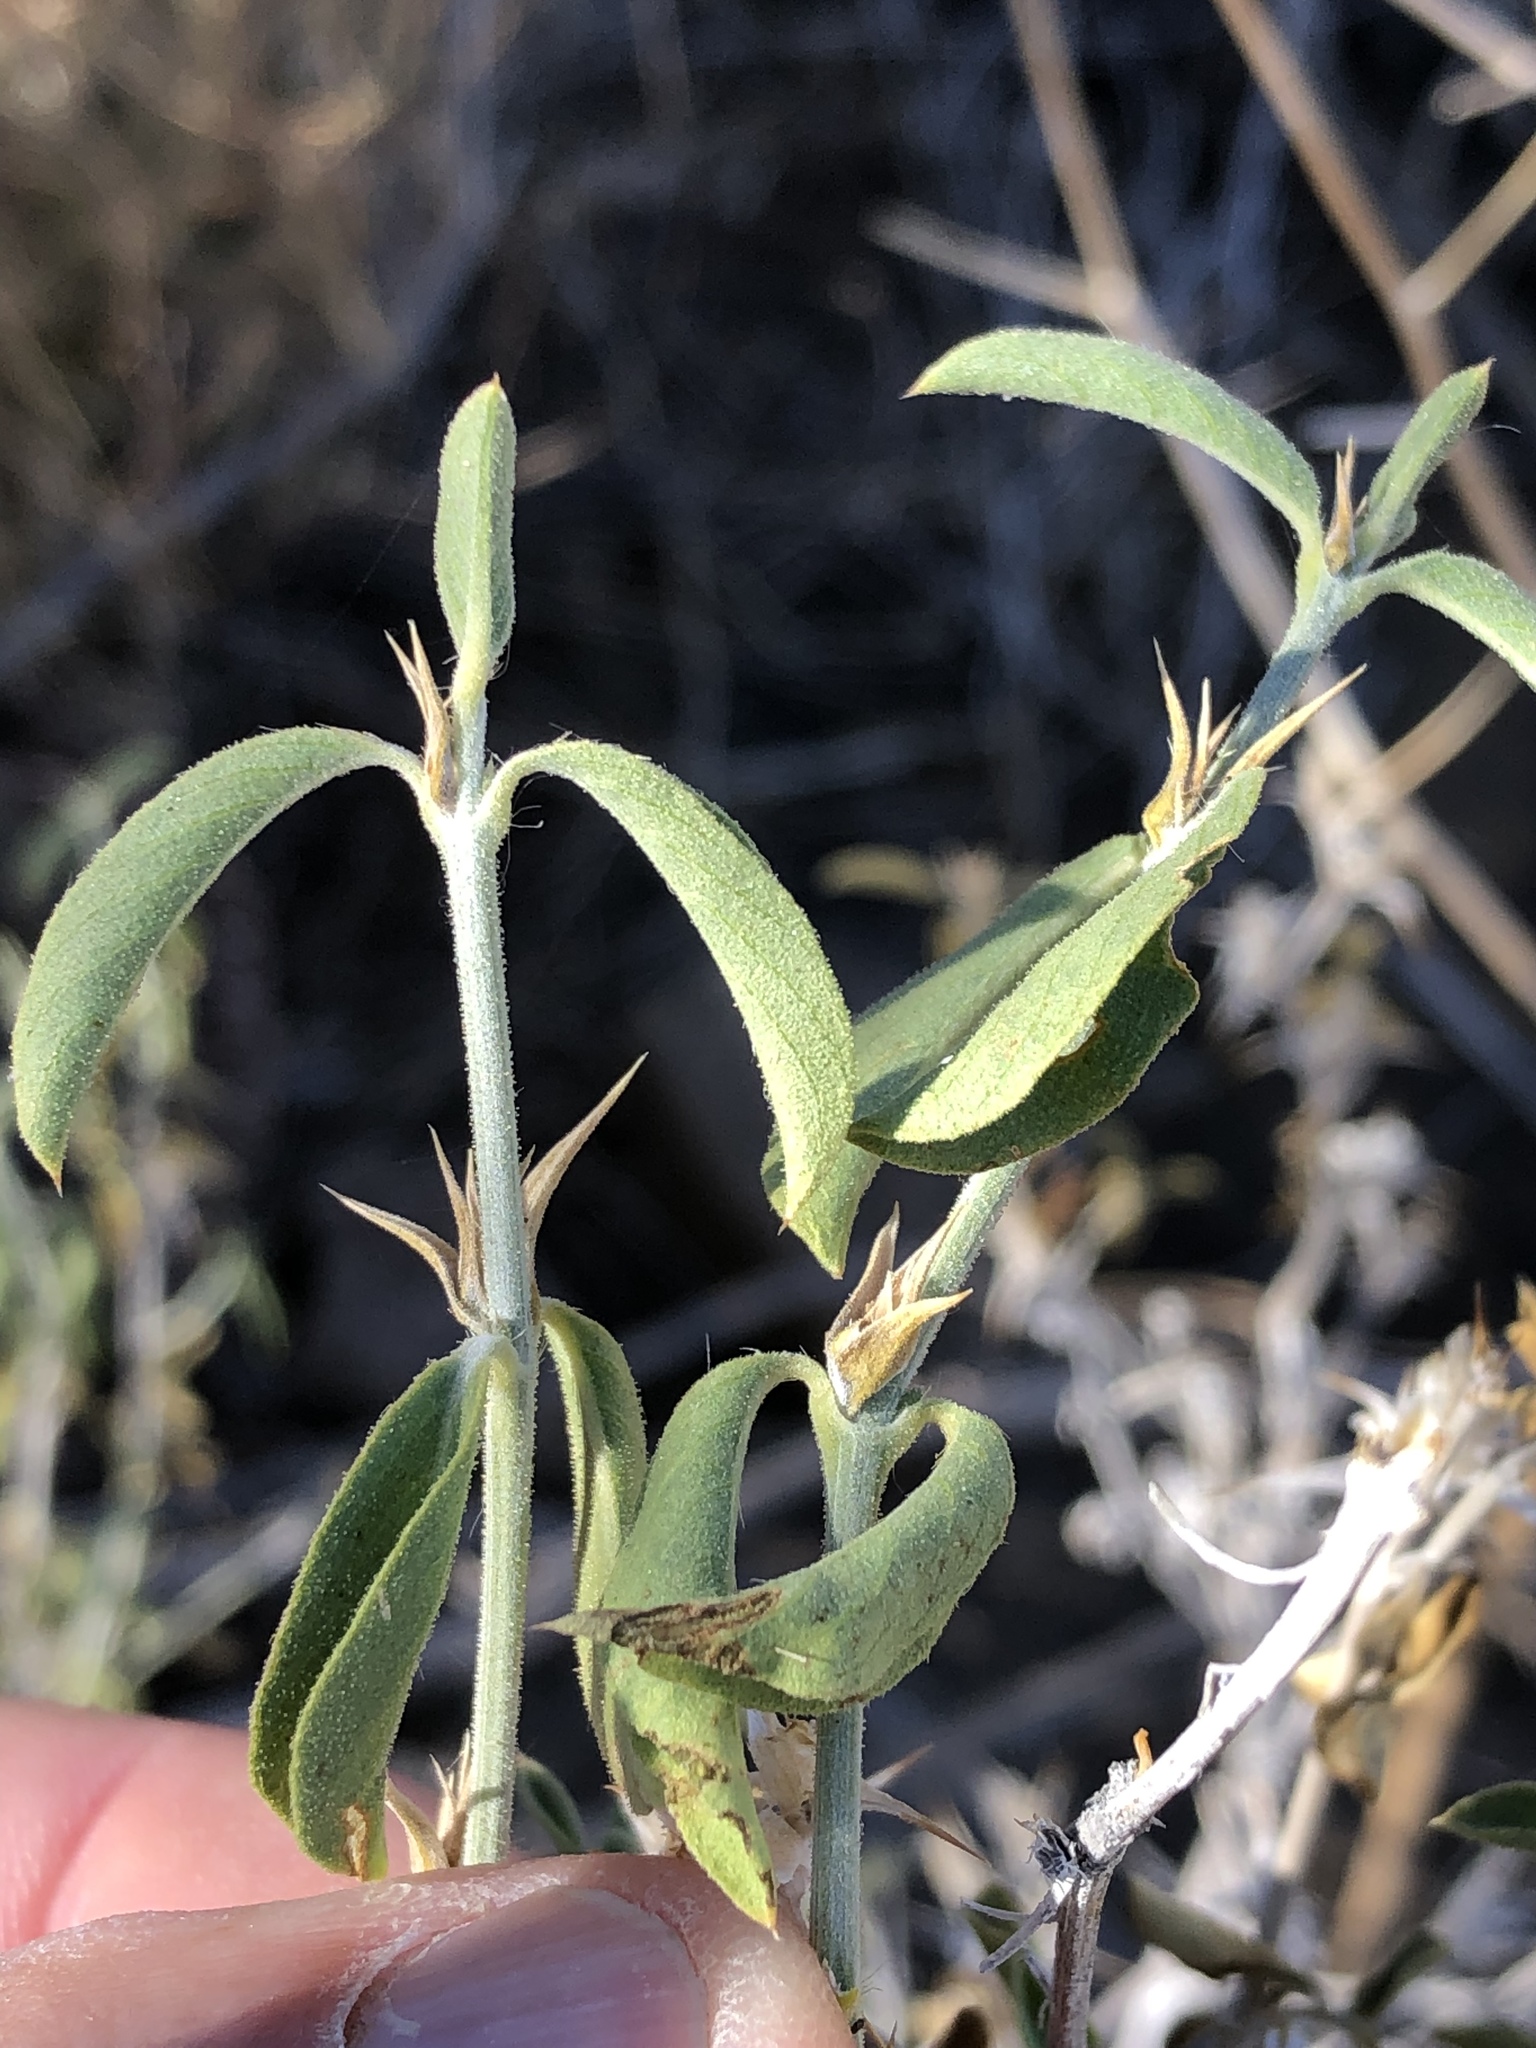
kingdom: Plantae
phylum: Tracheophyta
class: Magnoliopsida
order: Lamiales
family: Acanthaceae
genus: Barleria
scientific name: Barleria damarensis
